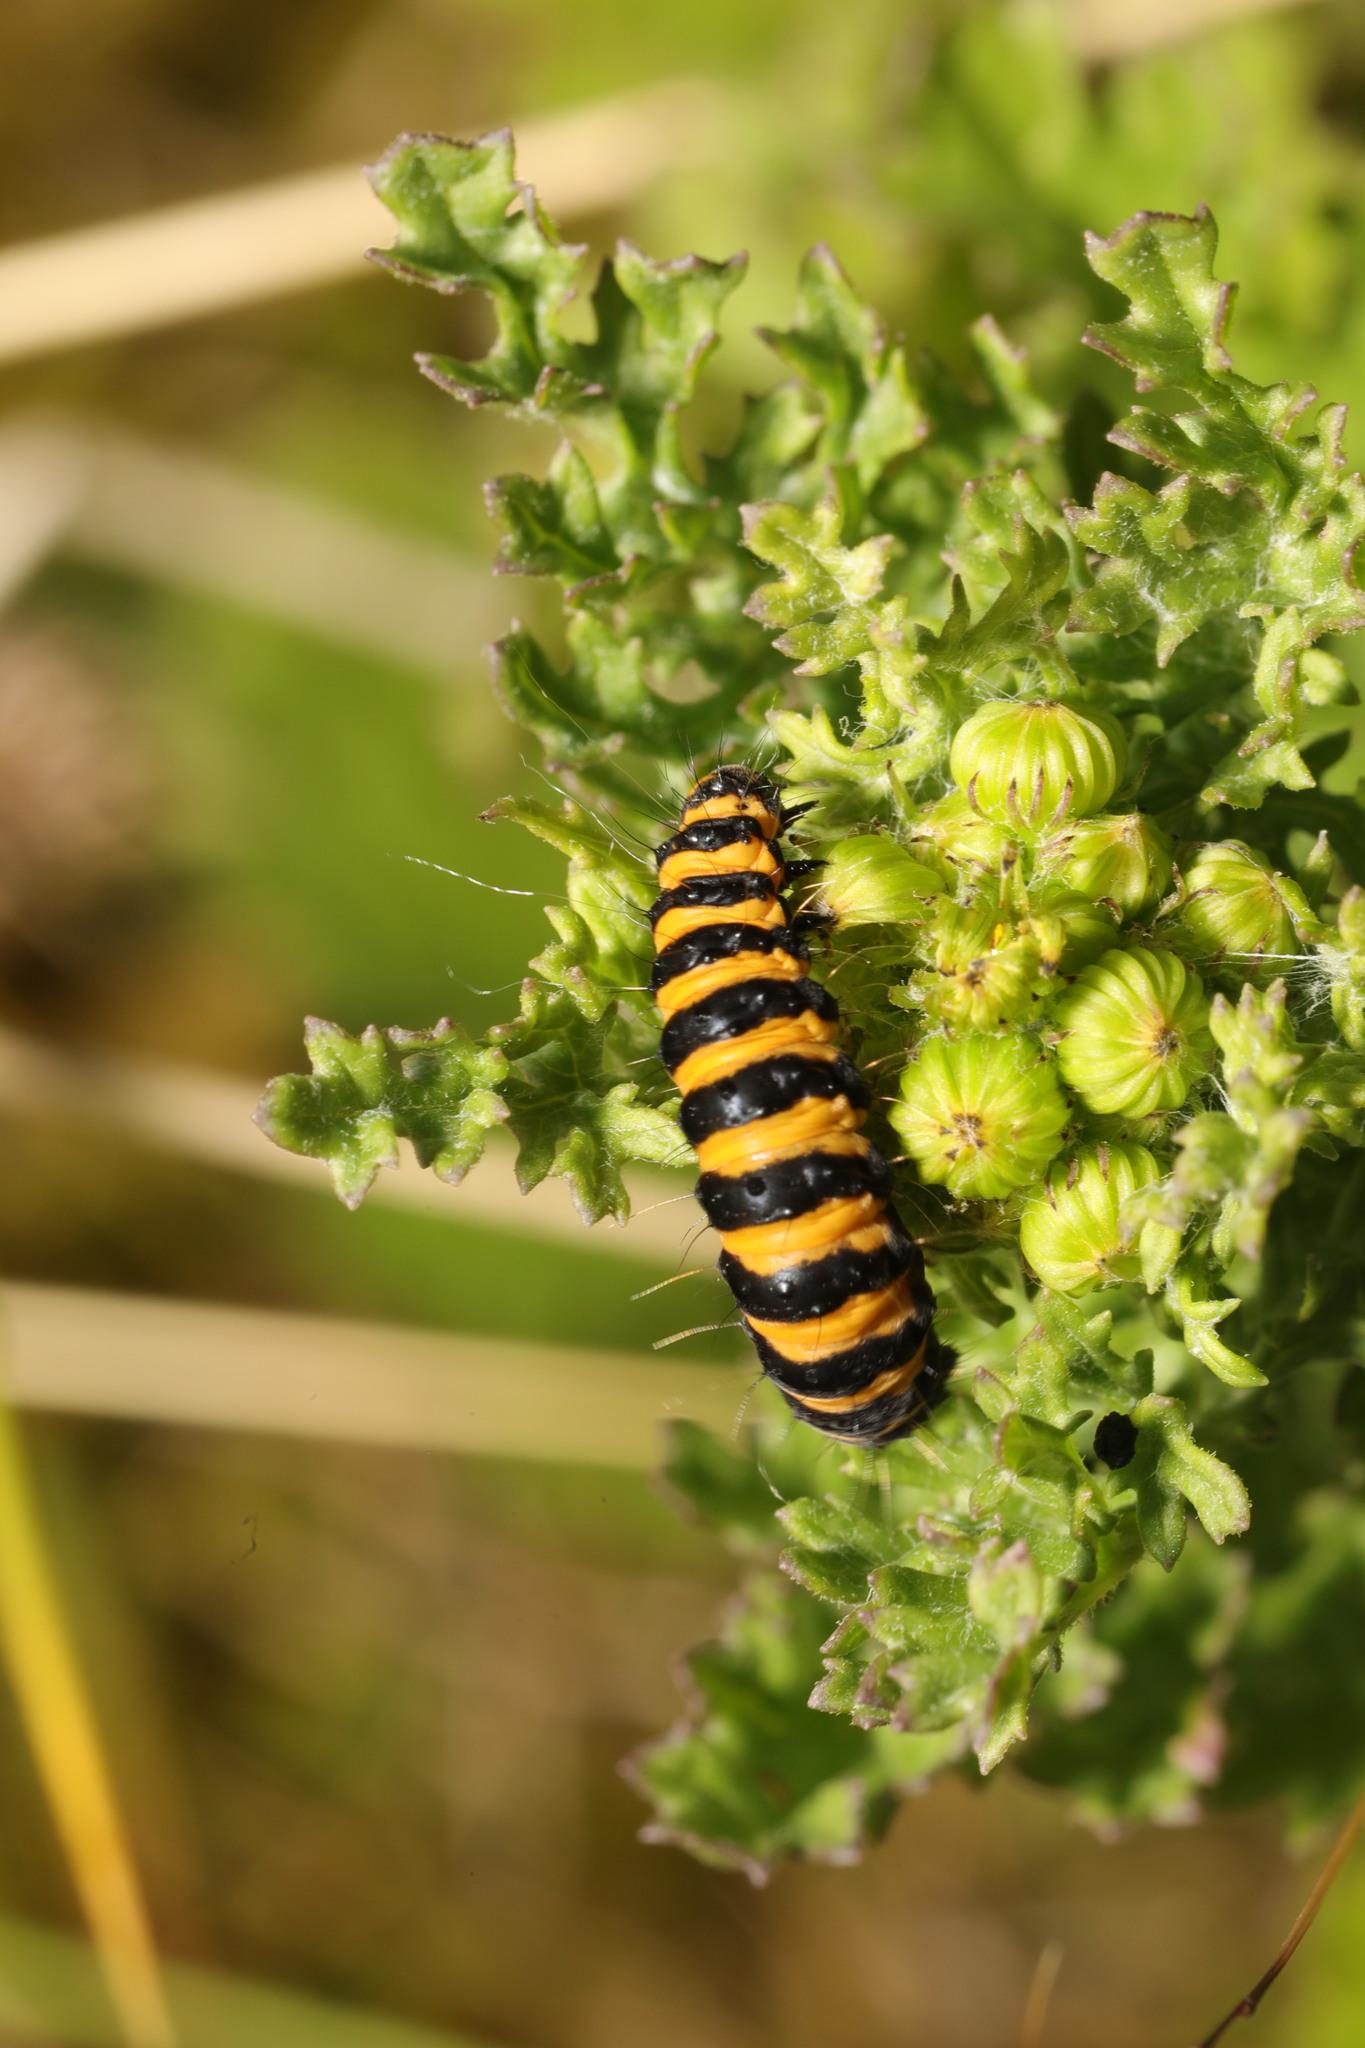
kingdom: Animalia
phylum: Arthropoda
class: Insecta
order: Lepidoptera
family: Erebidae
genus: Tyria
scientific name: Tyria jacobaeae
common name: Cinnabar
